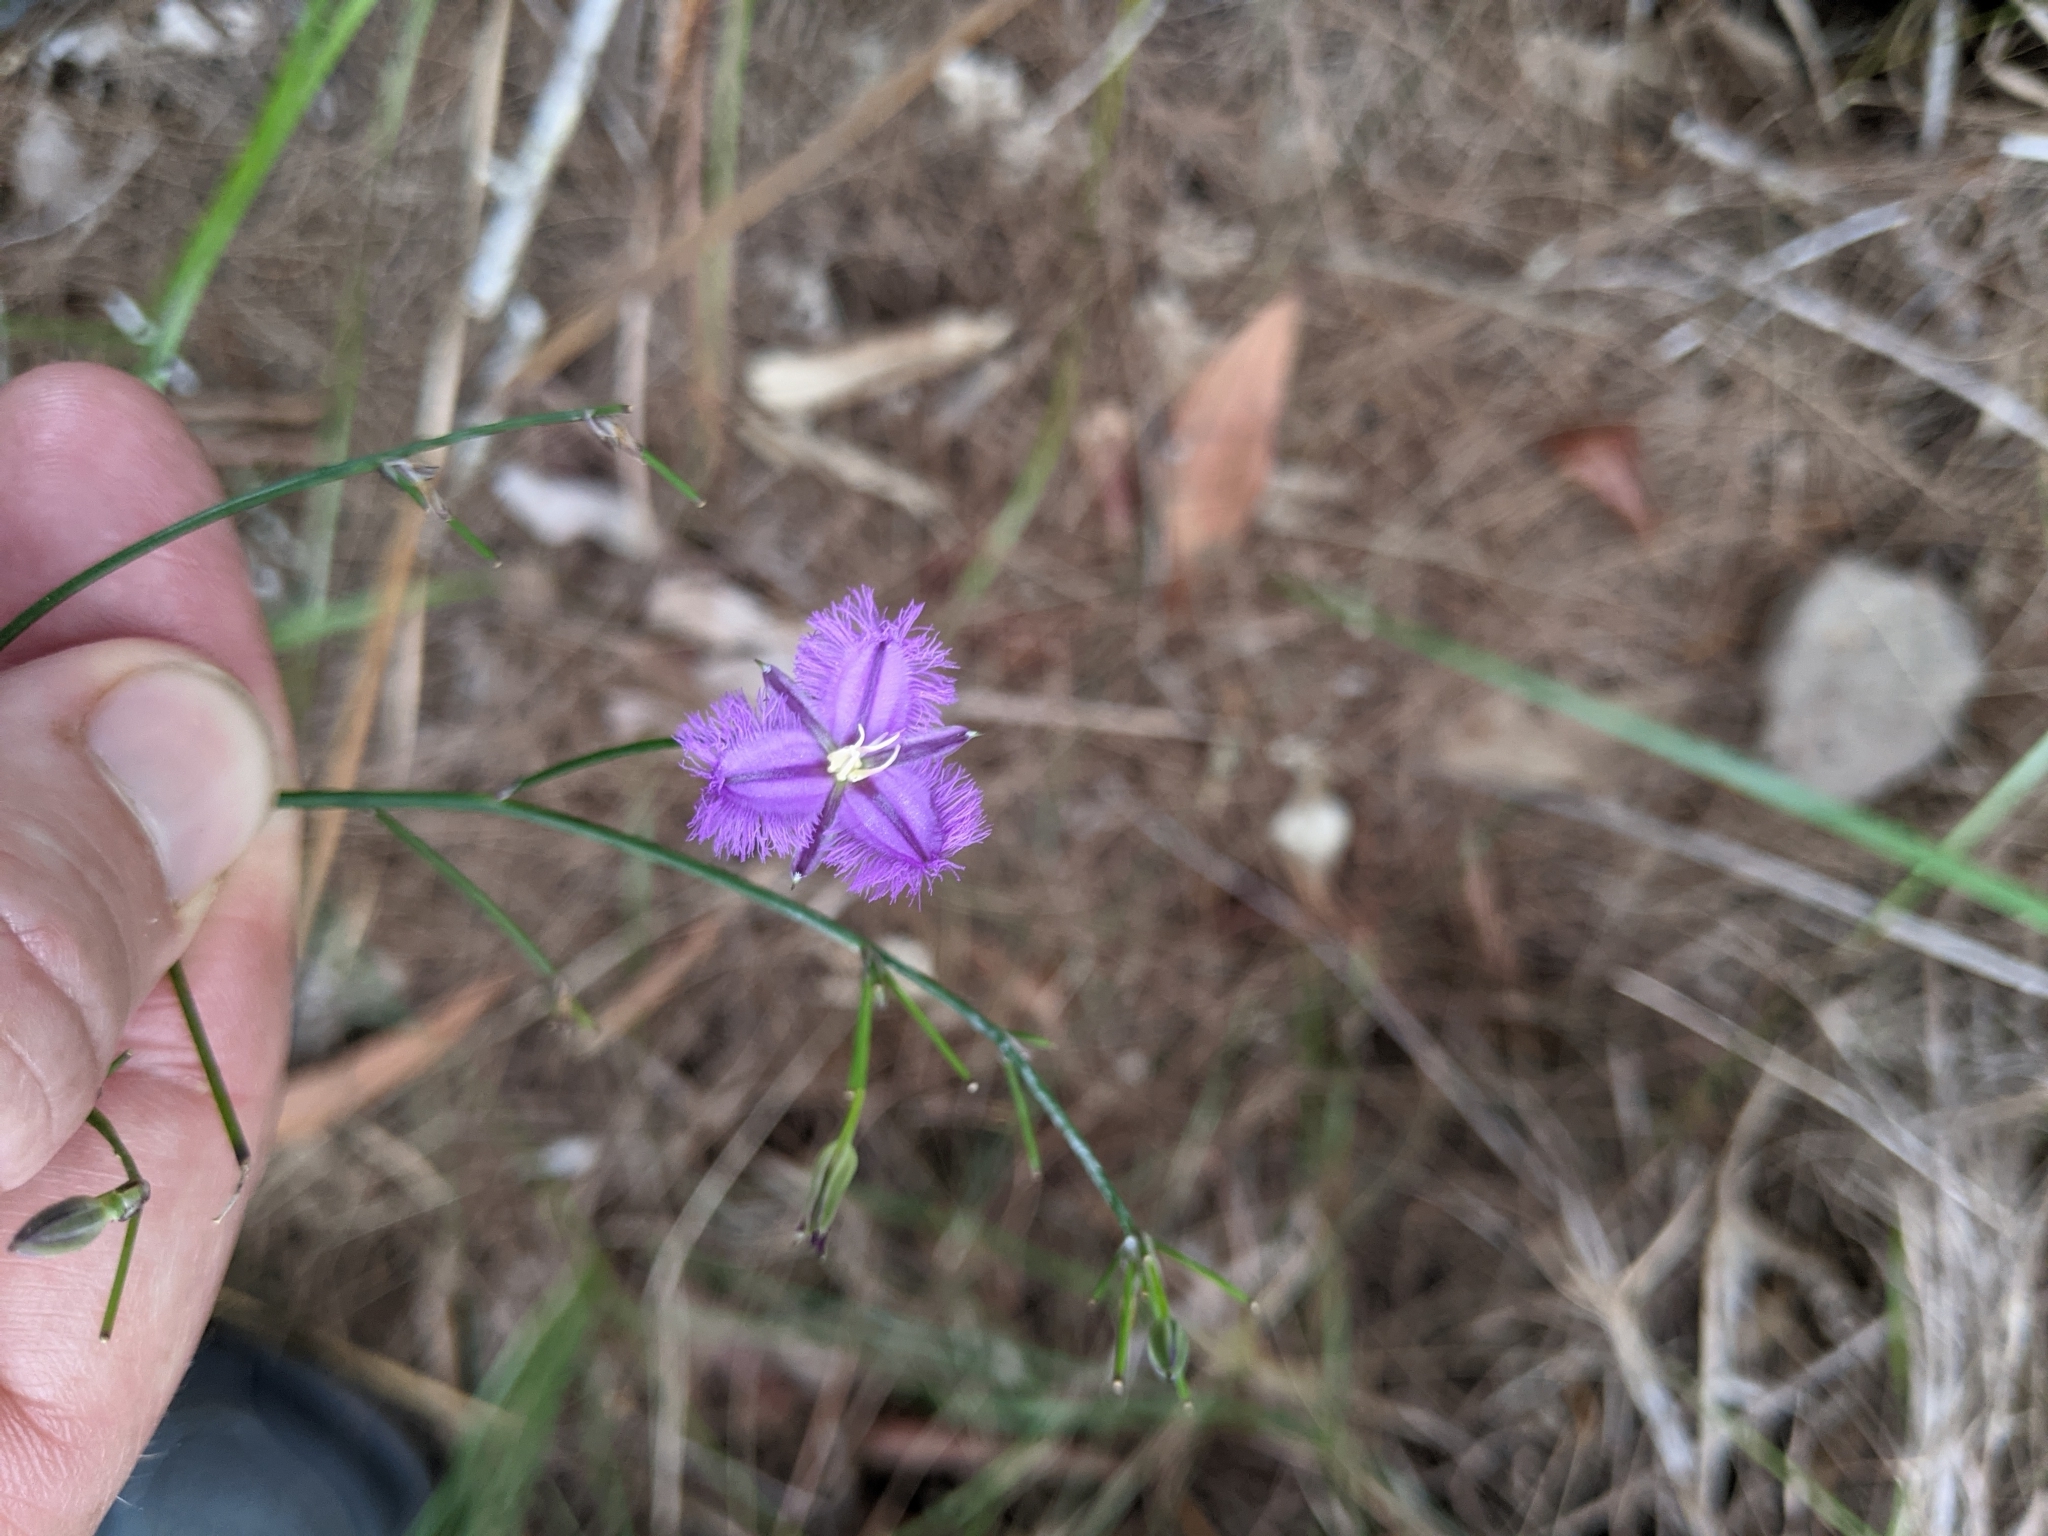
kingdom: Plantae
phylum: Tracheophyta
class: Liliopsida
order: Asparagales
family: Asparagaceae
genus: Thysanotus
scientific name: Thysanotus tuberosus
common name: Common fringed-lily
